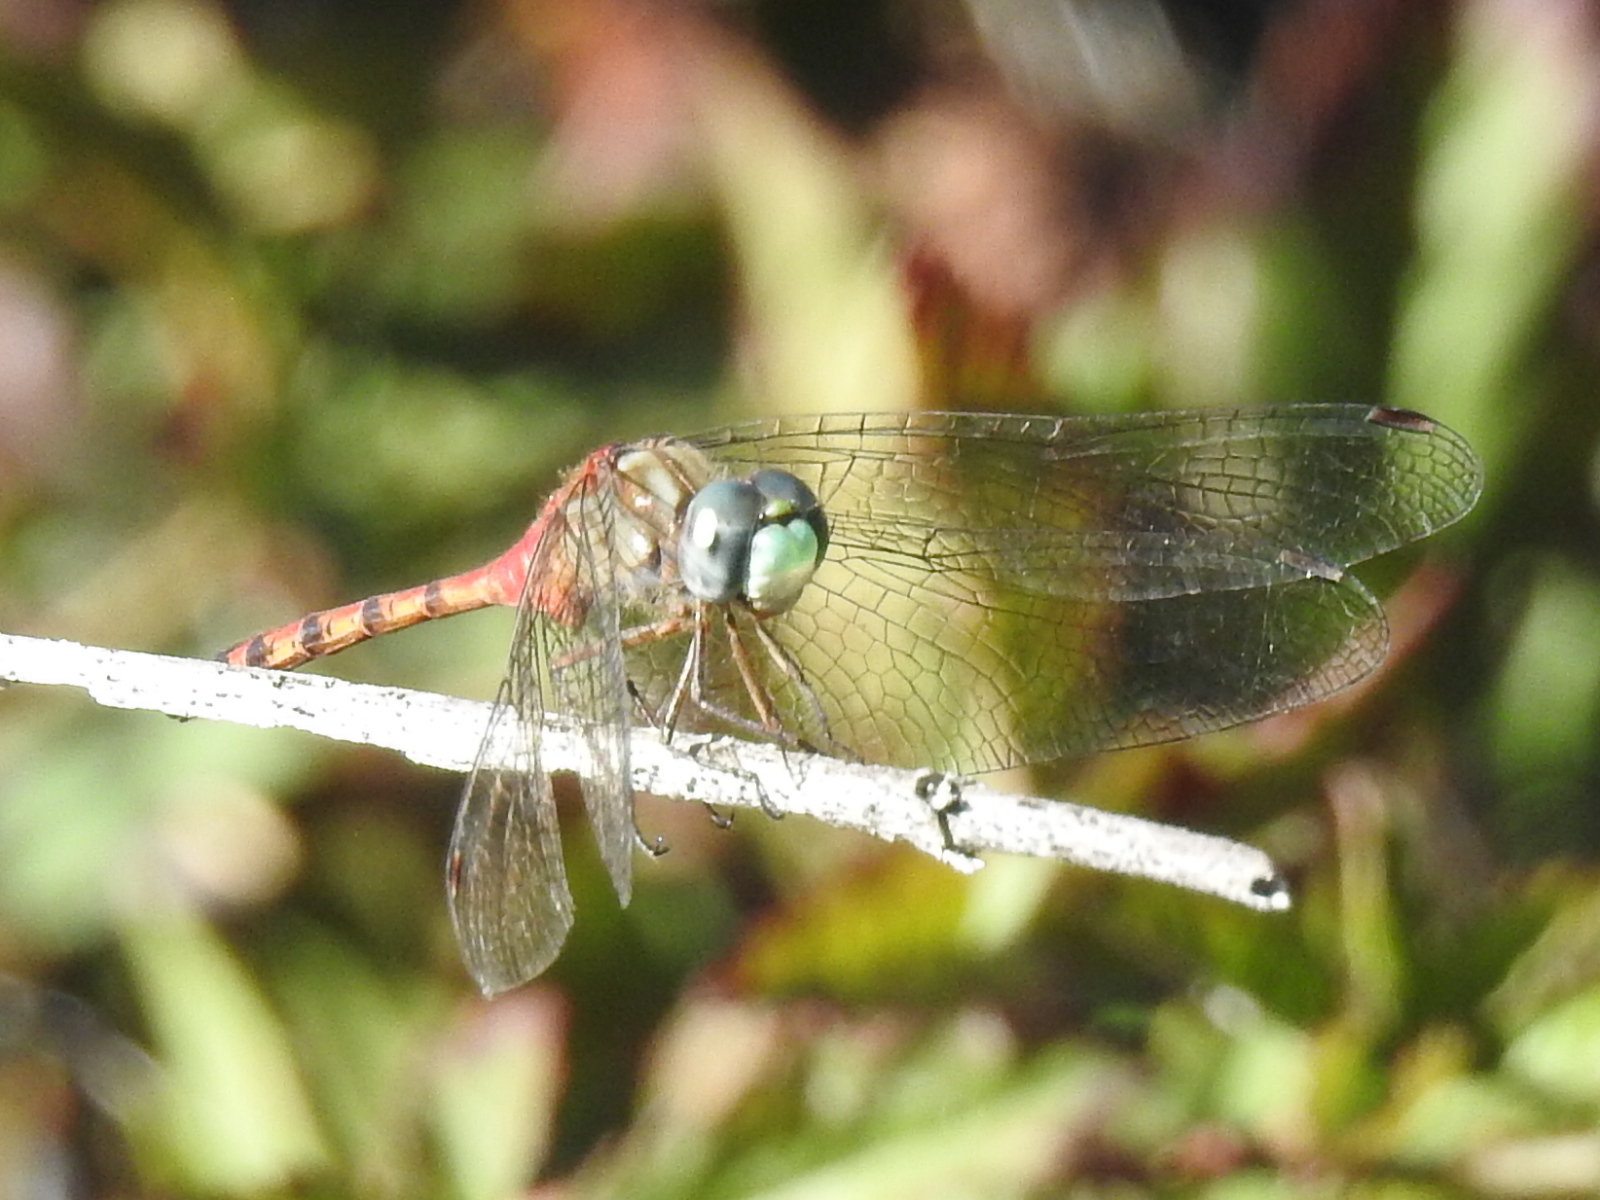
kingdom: Animalia
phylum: Arthropoda
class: Insecta
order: Odonata
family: Libellulidae
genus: Sympetrum
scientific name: Sympetrum ambiguum
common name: Blue-faced meadowhawk
